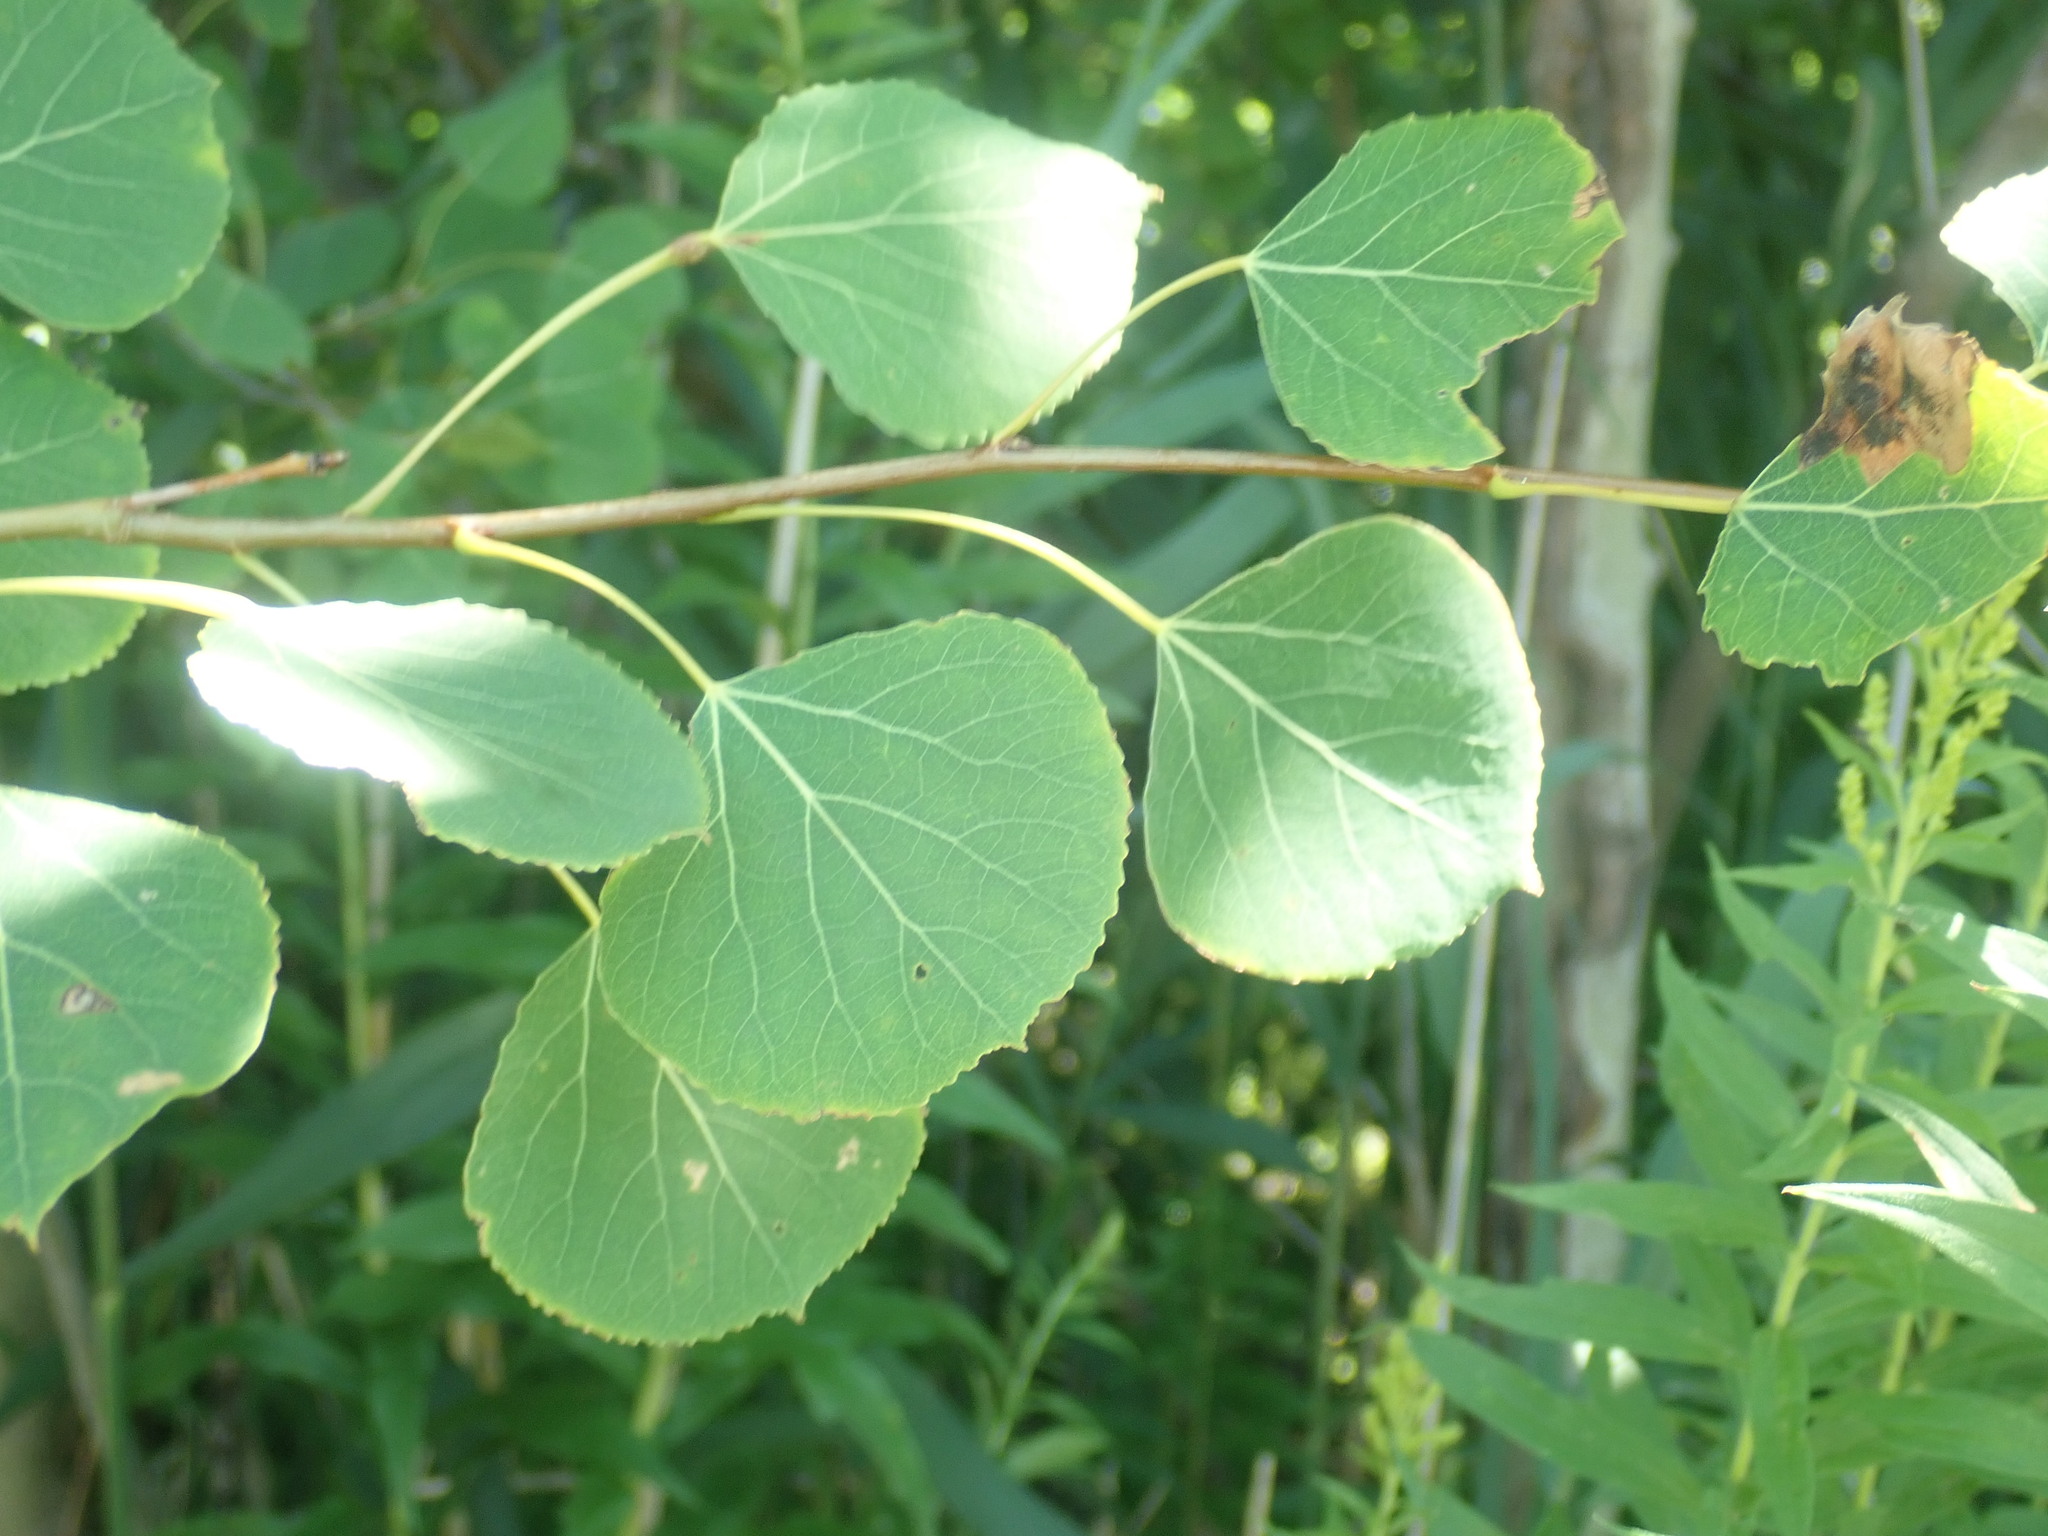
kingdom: Plantae
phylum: Tracheophyta
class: Magnoliopsida
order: Malpighiales
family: Salicaceae
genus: Populus
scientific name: Populus tremuloides
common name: Quaking aspen
